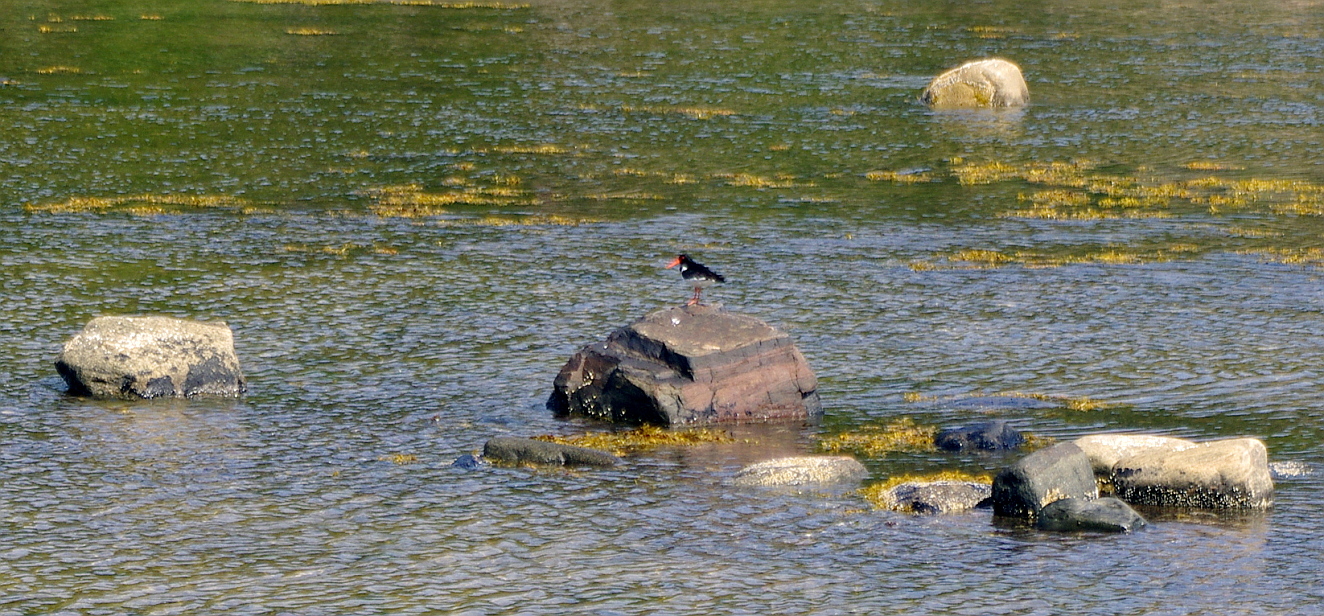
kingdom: Animalia
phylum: Chordata
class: Aves
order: Charadriiformes
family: Haematopodidae
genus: Haematopus
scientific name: Haematopus ostralegus
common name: Eurasian oystercatcher
